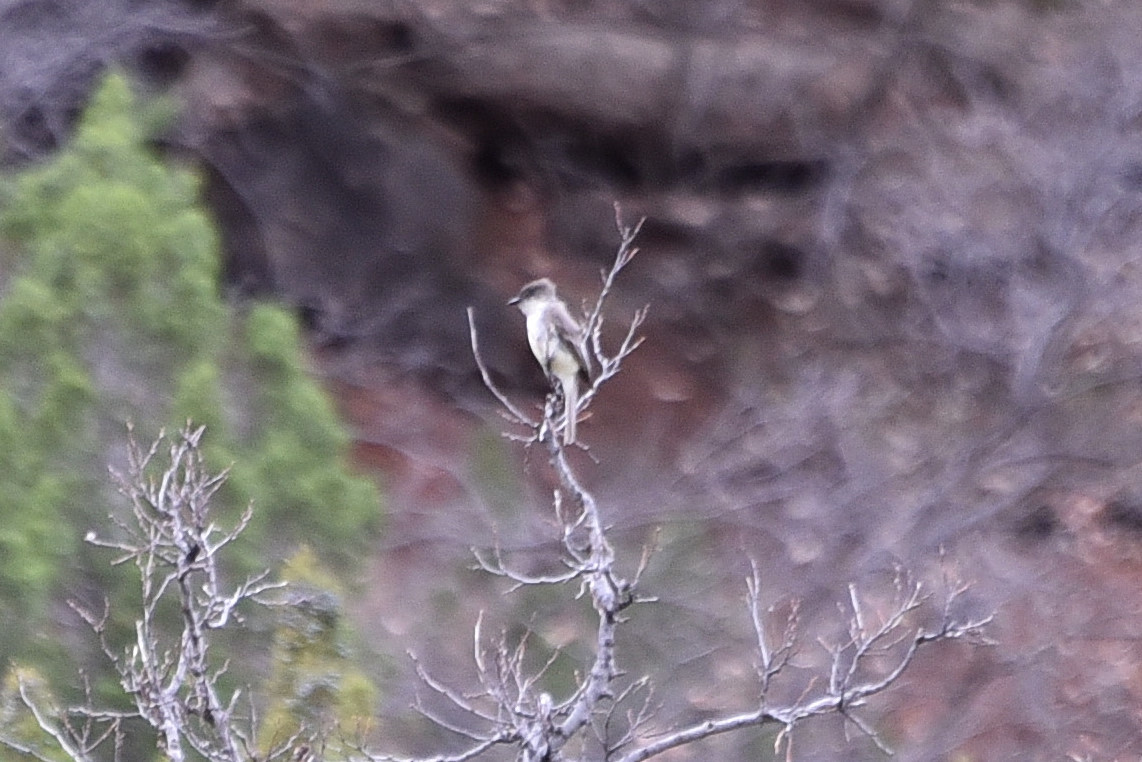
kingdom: Animalia
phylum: Chordata
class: Aves
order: Passeriformes
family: Tyrannidae
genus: Sayornis
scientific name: Sayornis phoebe
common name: Eastern phoebe
